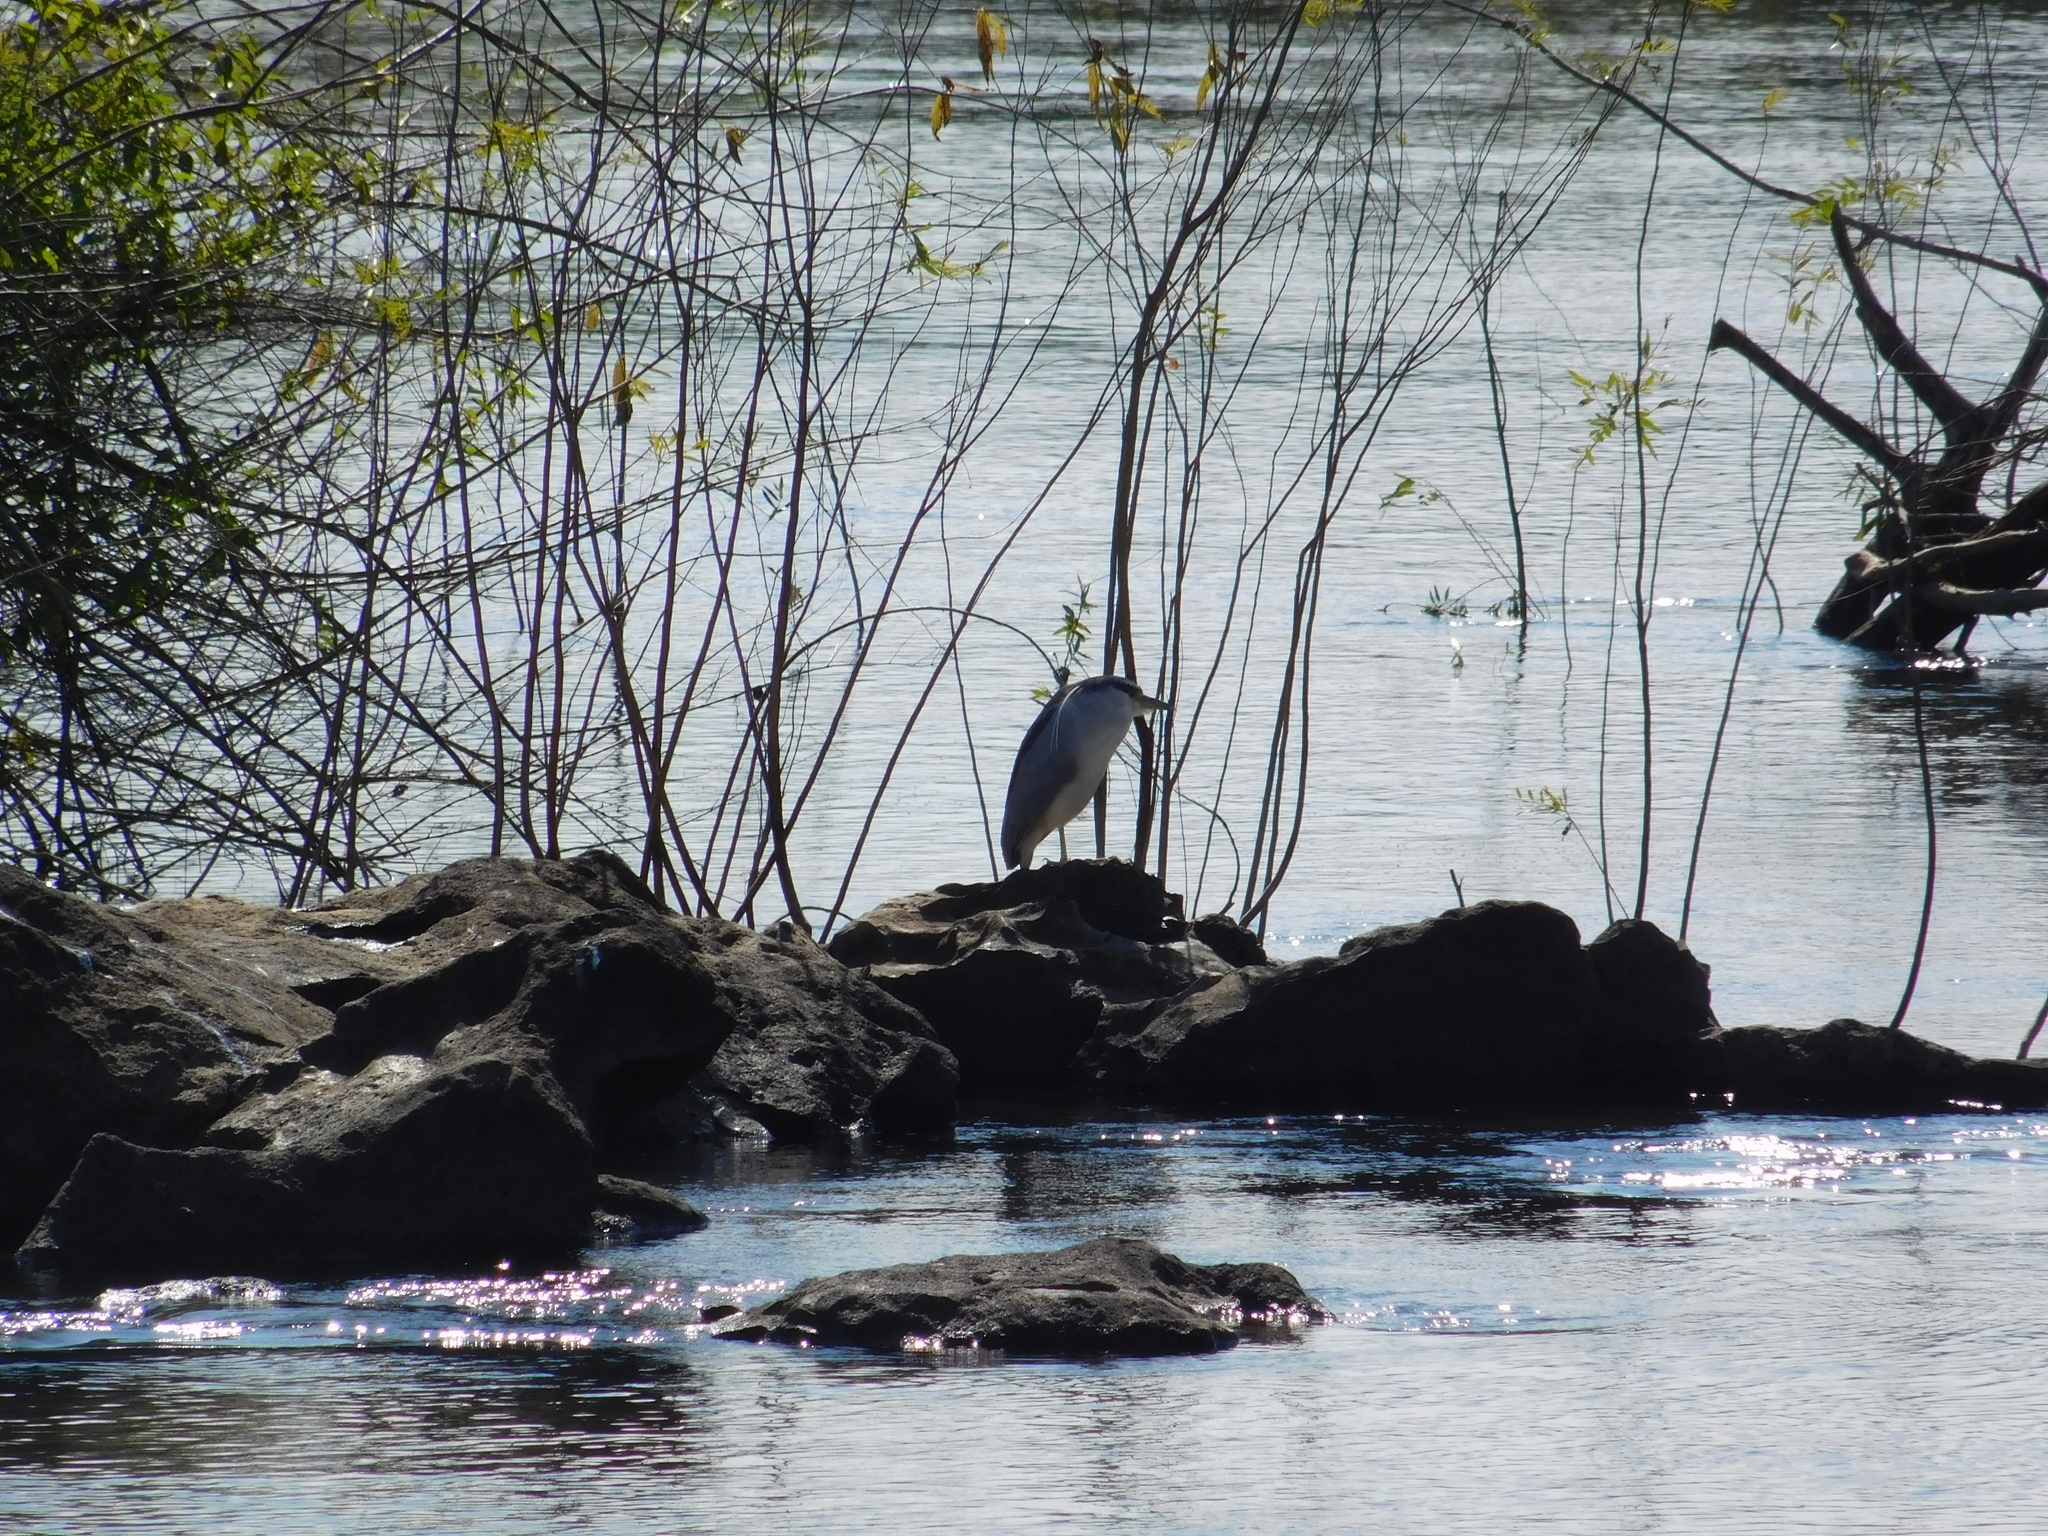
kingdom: Animalia
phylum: Chordata
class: Aves
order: Pelecaniformes
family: Ardeidae
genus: Nycticorax
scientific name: Nycticorax nycticorax
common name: Black-crowned night heron
